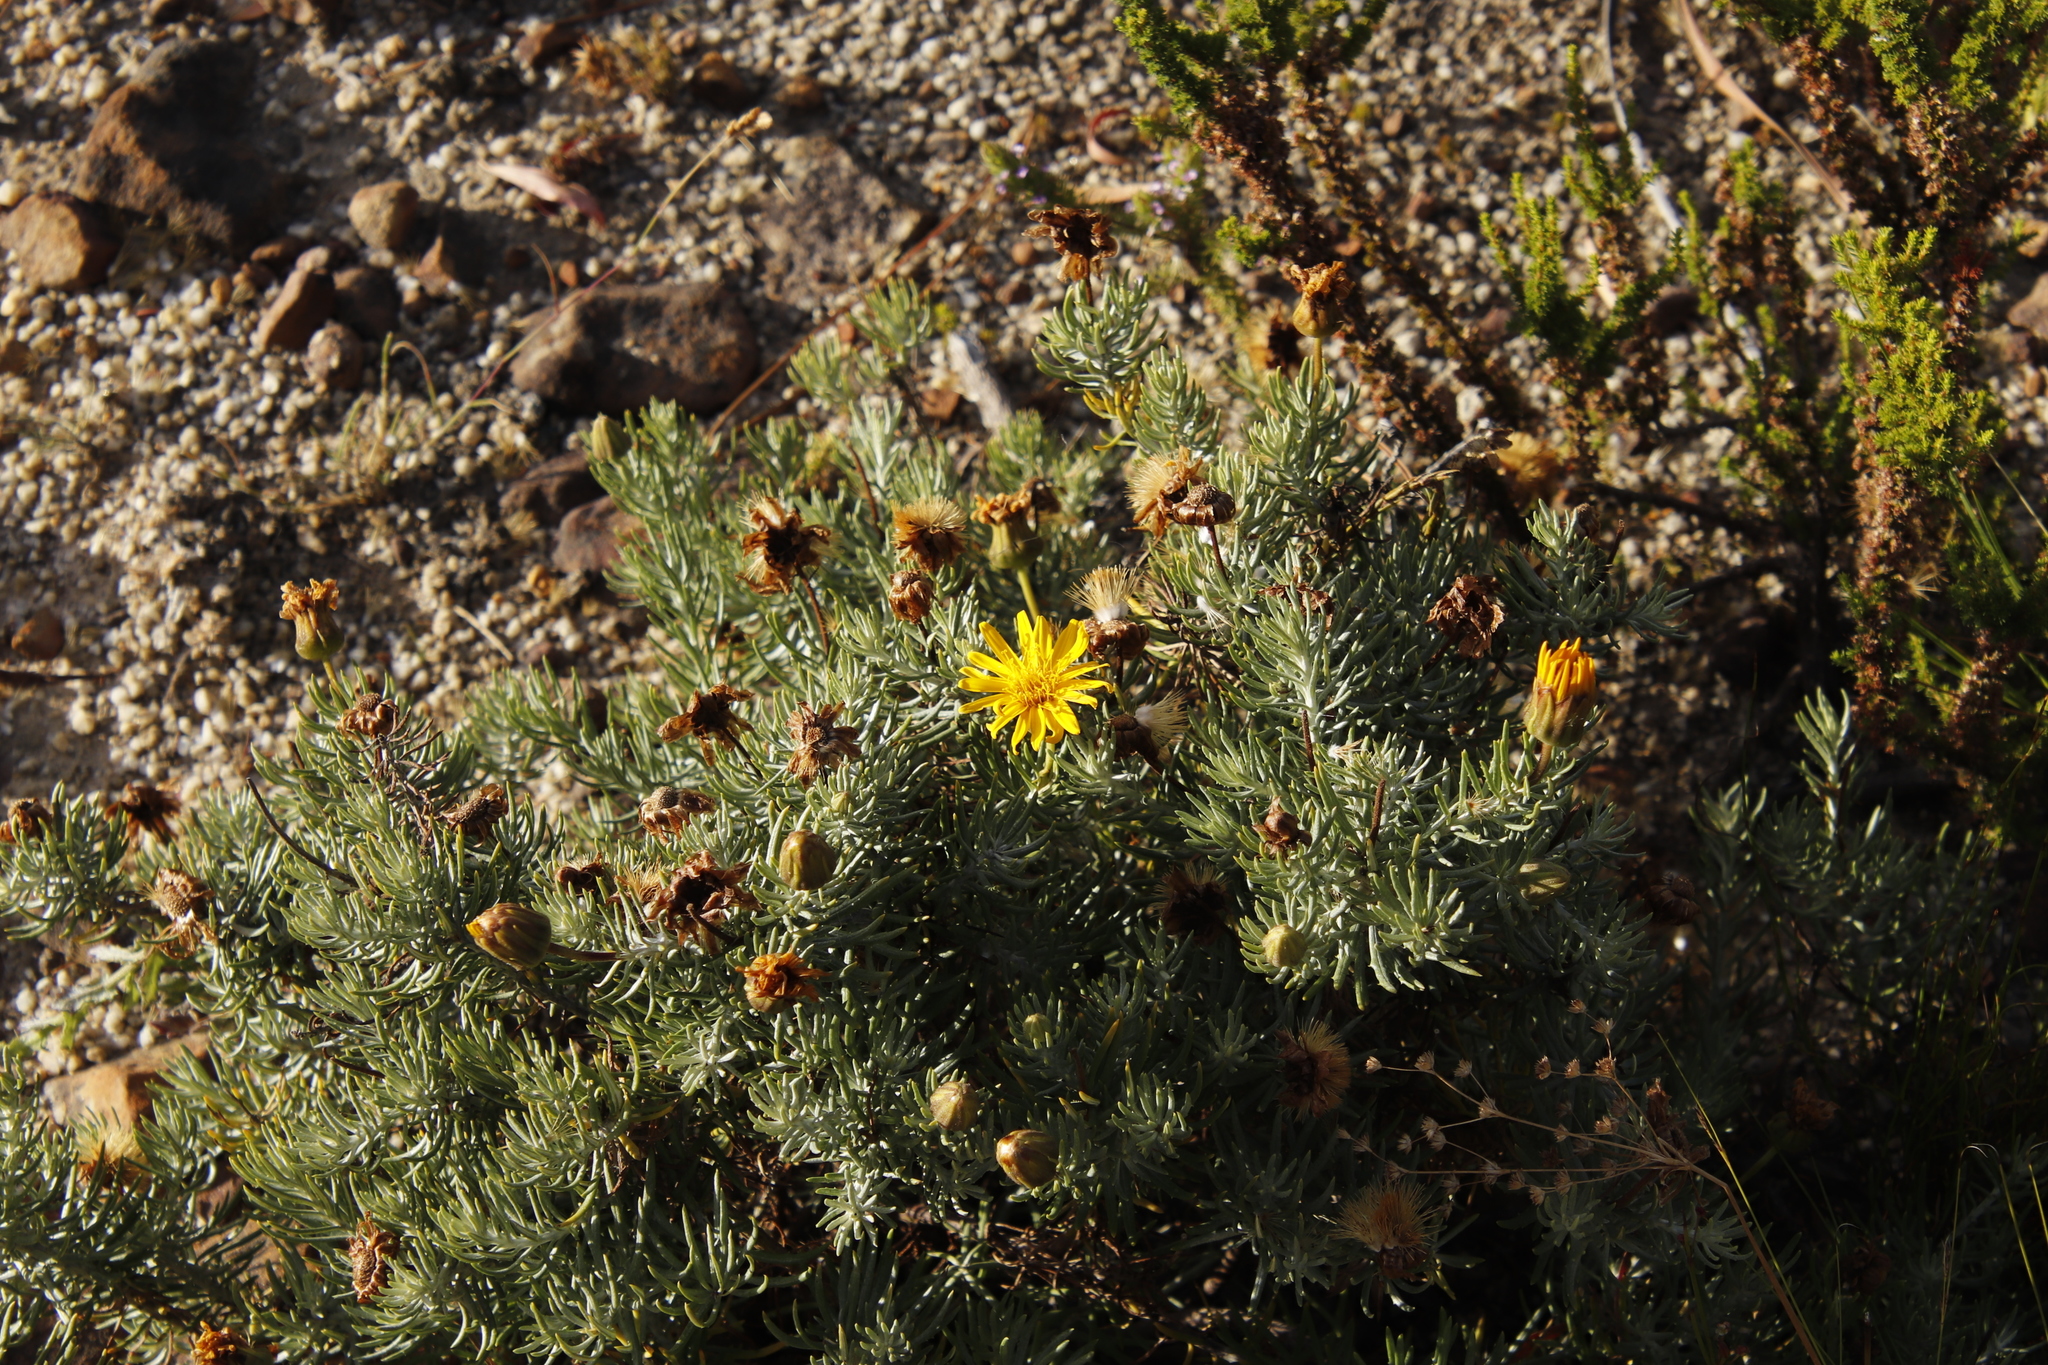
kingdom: Plantae
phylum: Tracheophyta
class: Magnoliopsida
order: Asterales
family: Asteraceae
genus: Heterolepis
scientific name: Heterolepis aliena
